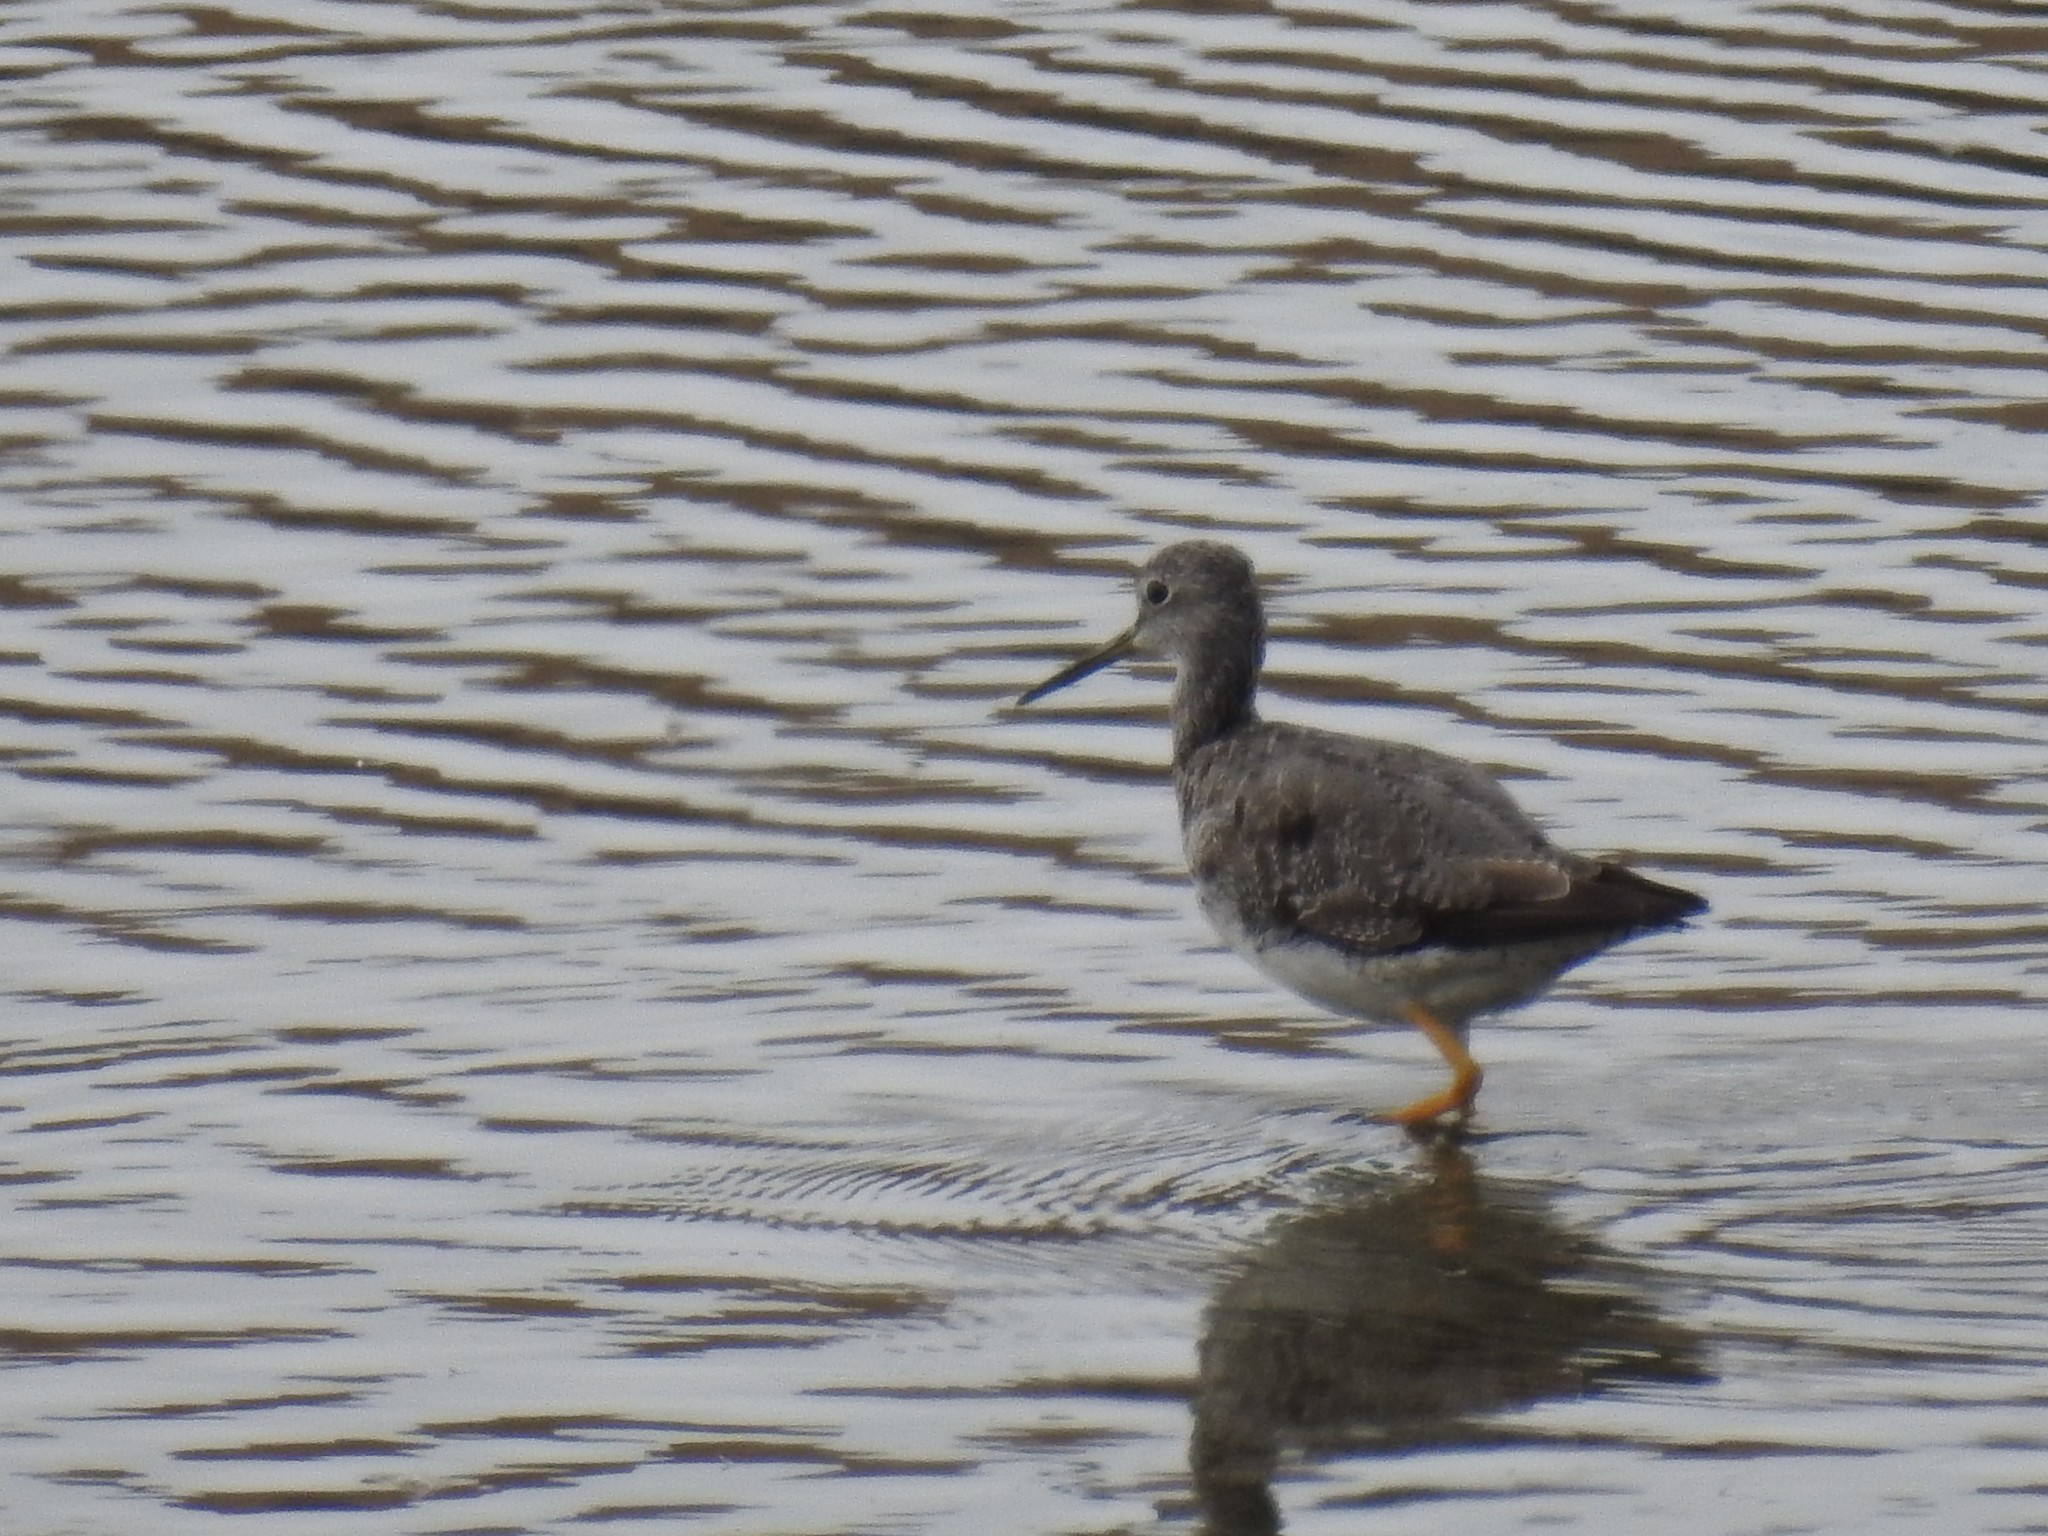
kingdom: Animalia
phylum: Chordata
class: Aves
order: Charadriiformes
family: Scolopacidae
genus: Tringa
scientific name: Tringa melanoleuca
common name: Greater yellowlegs
